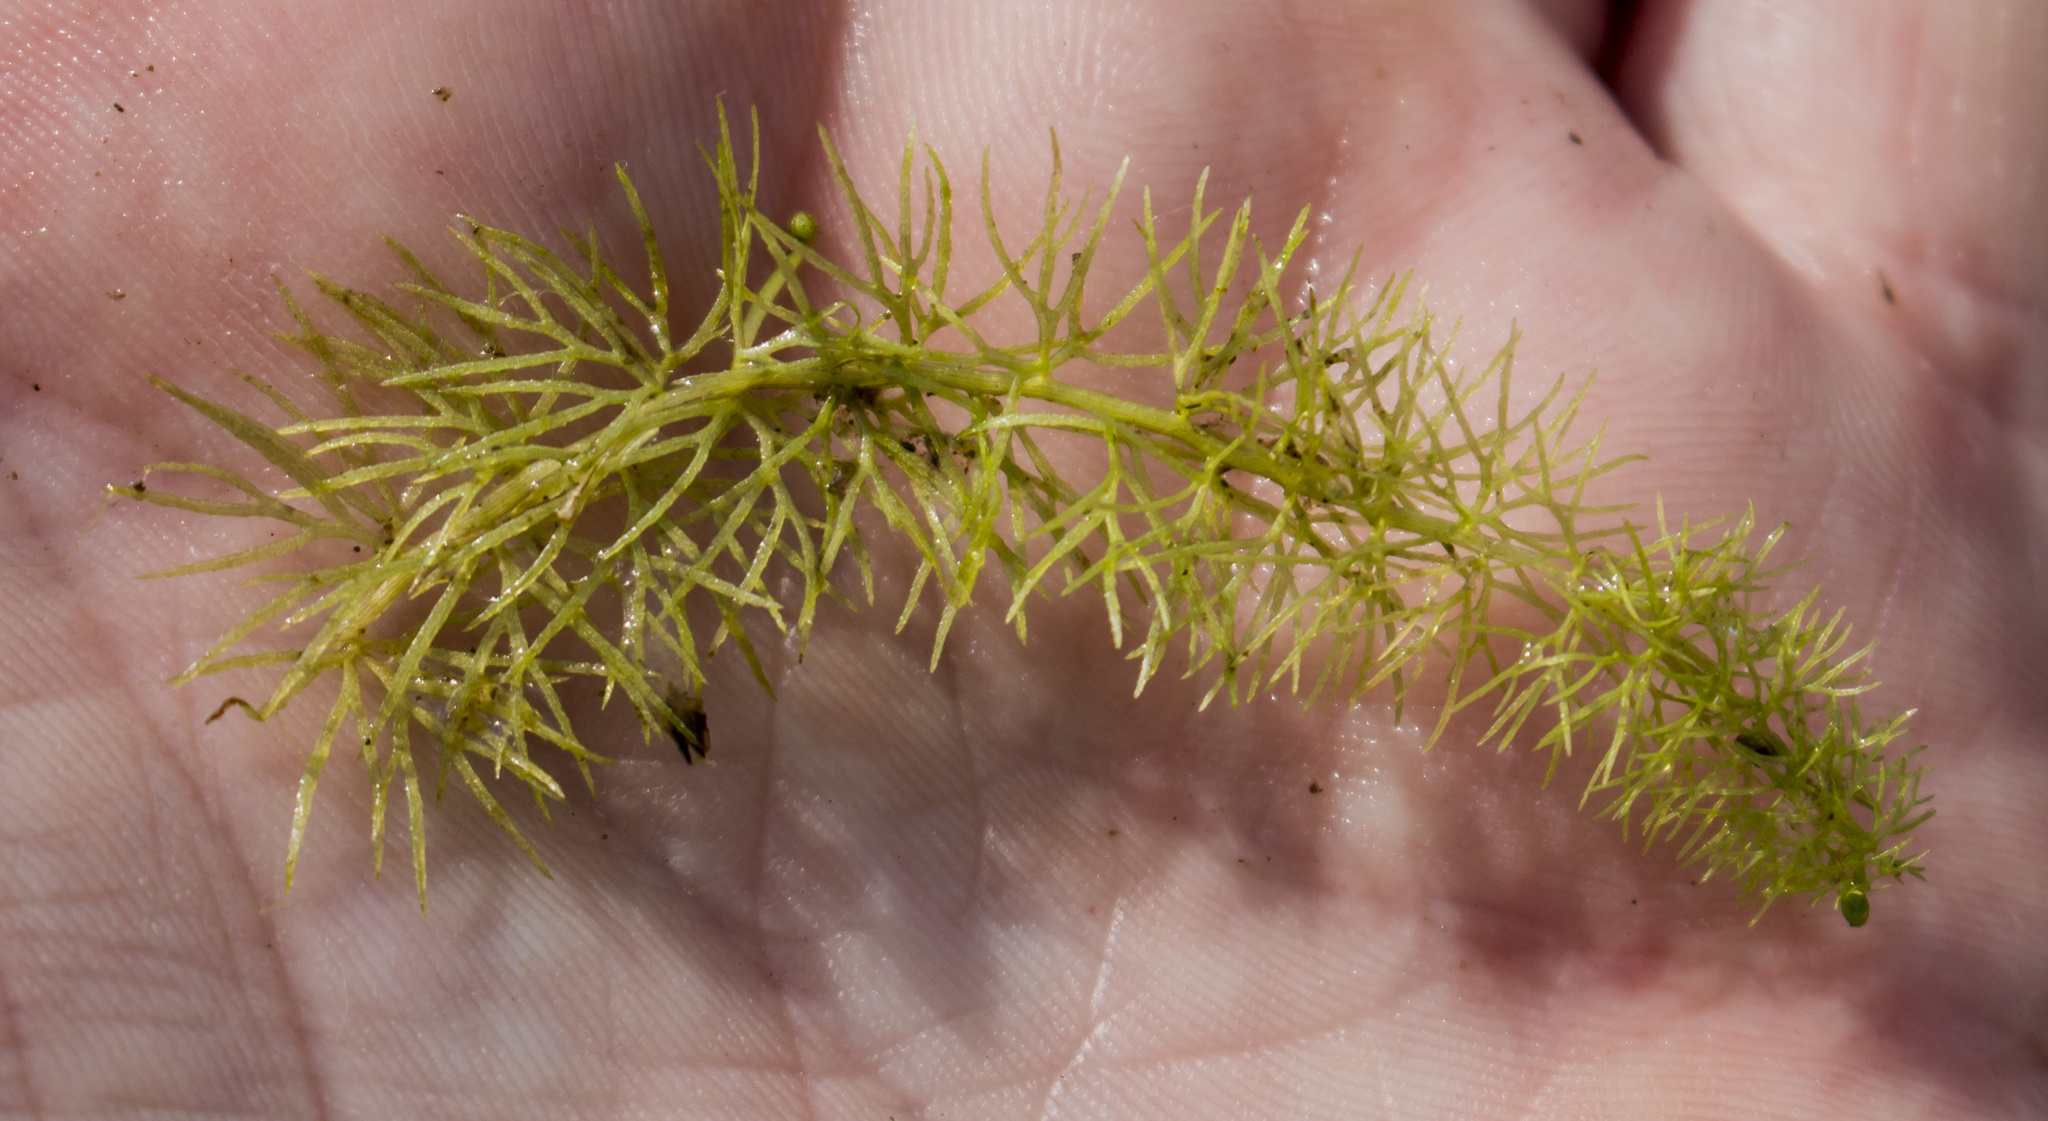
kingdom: Plantae
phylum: Tracheophyta
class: Magnoliopsida
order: Lamiales
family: Lentibulariaceae
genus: Utricularia
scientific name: Utricularia intermedia
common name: Intermediate bladderwort
